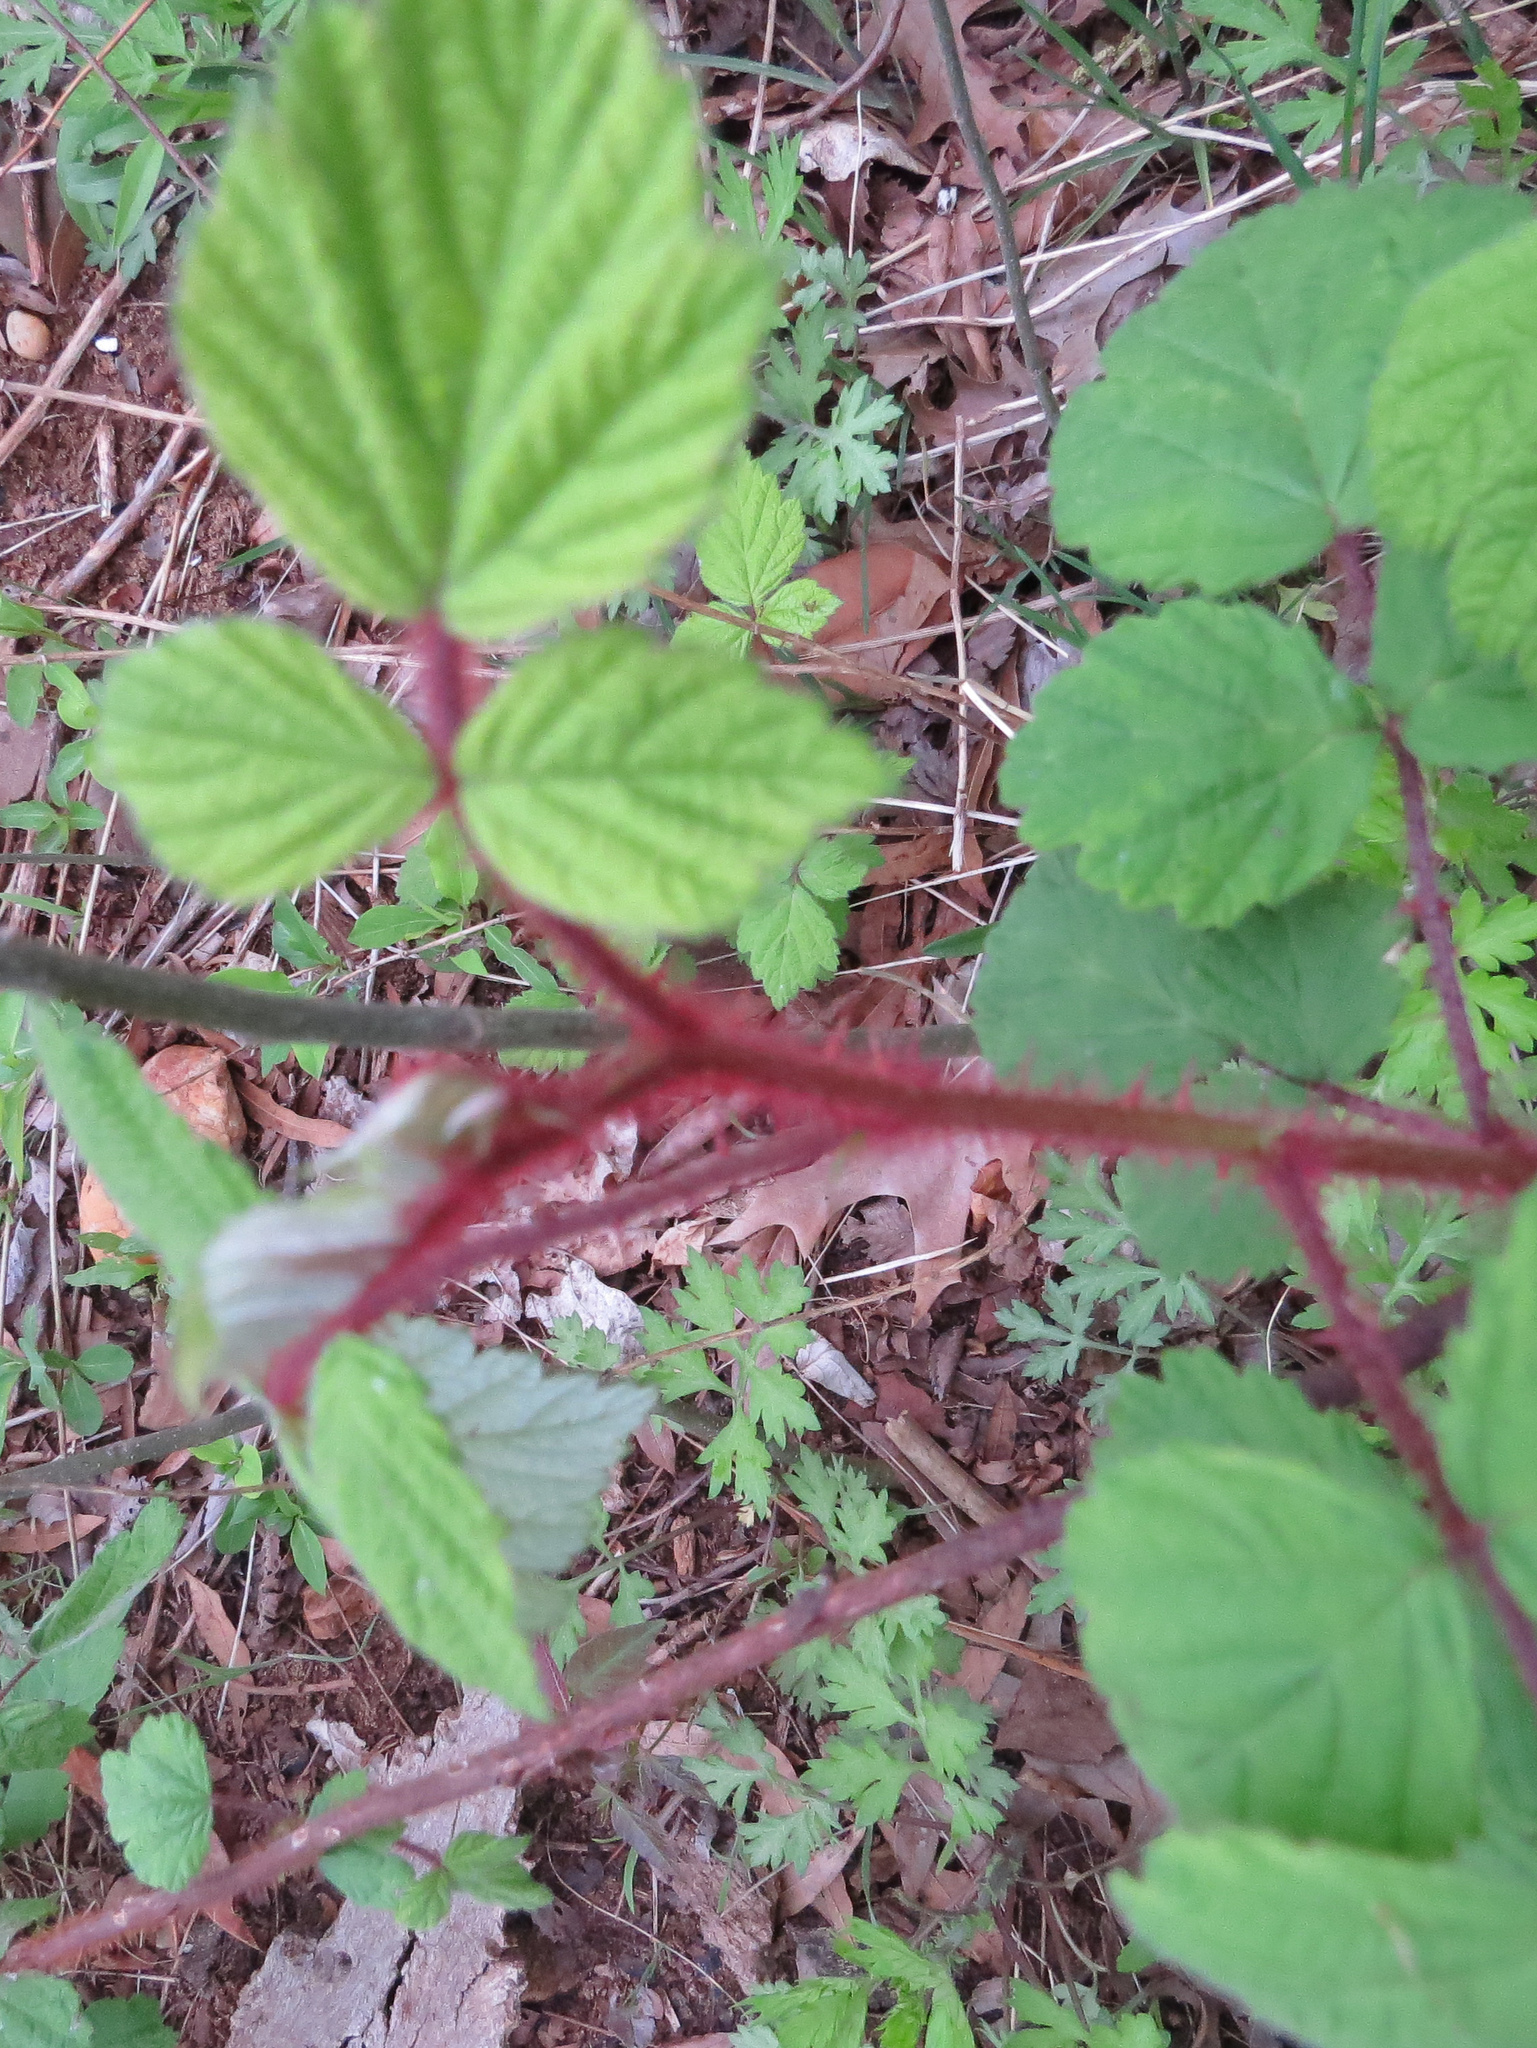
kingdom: Plantae
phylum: Tracheophyta
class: Magnoliopsida
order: Rosales
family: Rosaceae
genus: Rubus
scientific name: Rubus phoenicolasius
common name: Japanese wineberry
